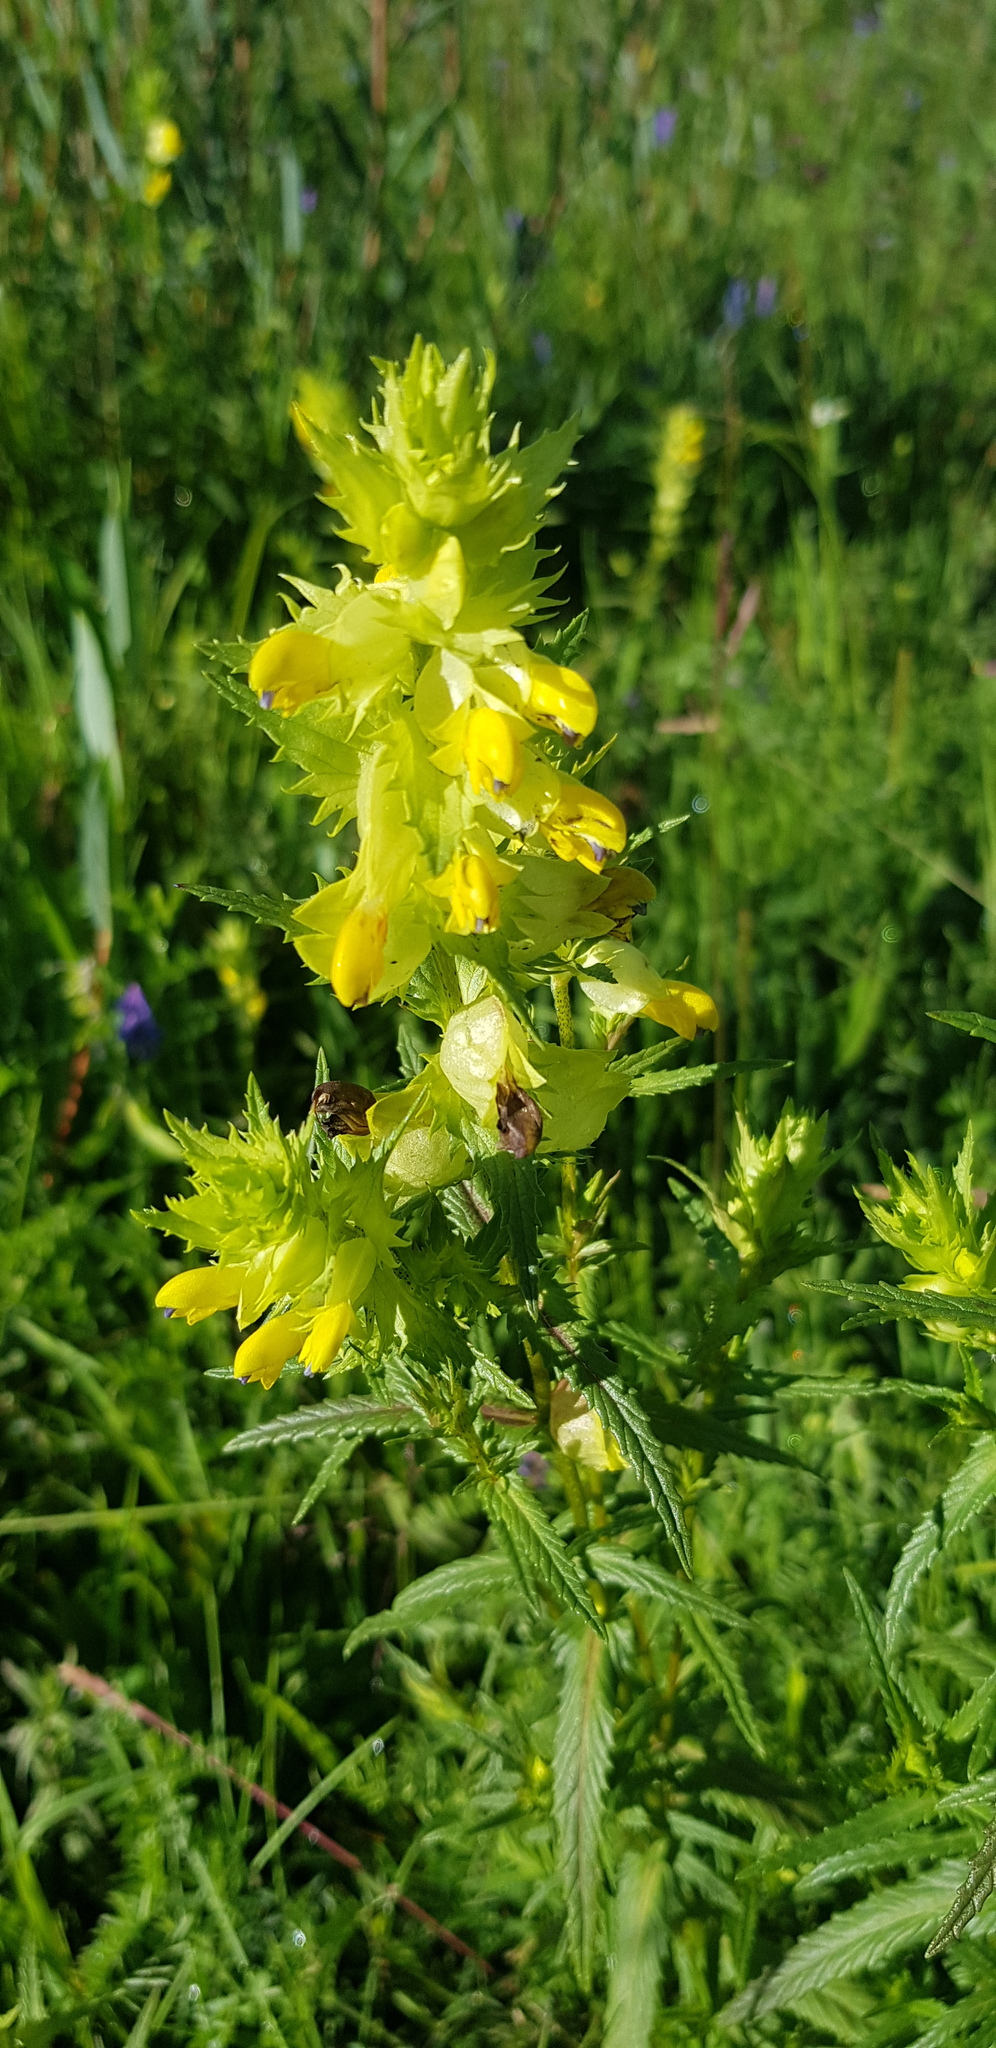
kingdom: Plantae
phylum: Tracheophyta
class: Magnoliopsida
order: Lamiales
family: Orobanchaceae
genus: Rhinanthus
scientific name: Rhinanthus songaricus
